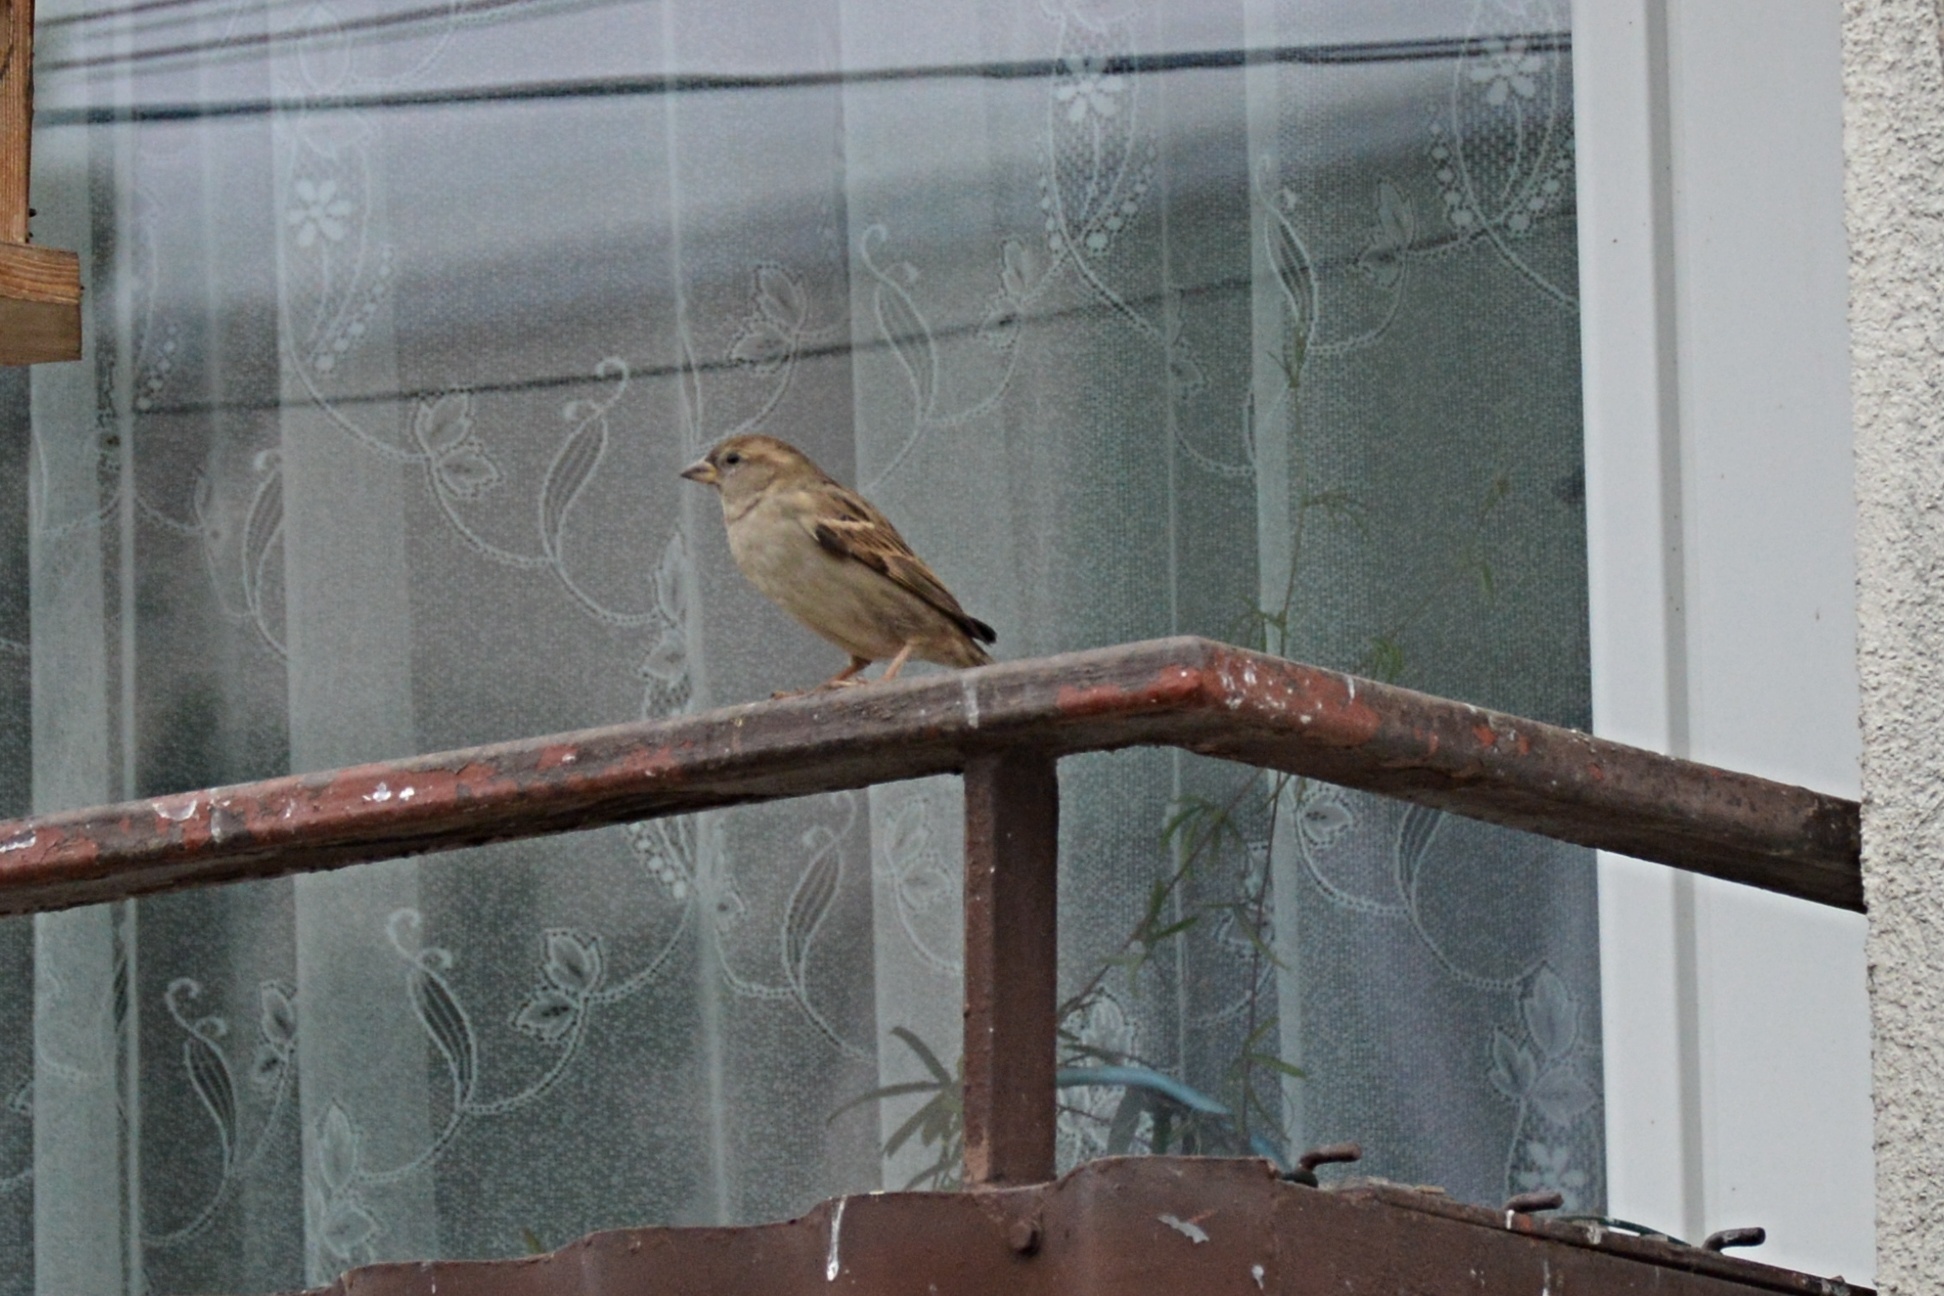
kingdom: Animalia
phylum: Chordata
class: Aves
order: Passeriformes
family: Passeridae
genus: Passer
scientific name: Passer domesticus
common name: House sparrow
